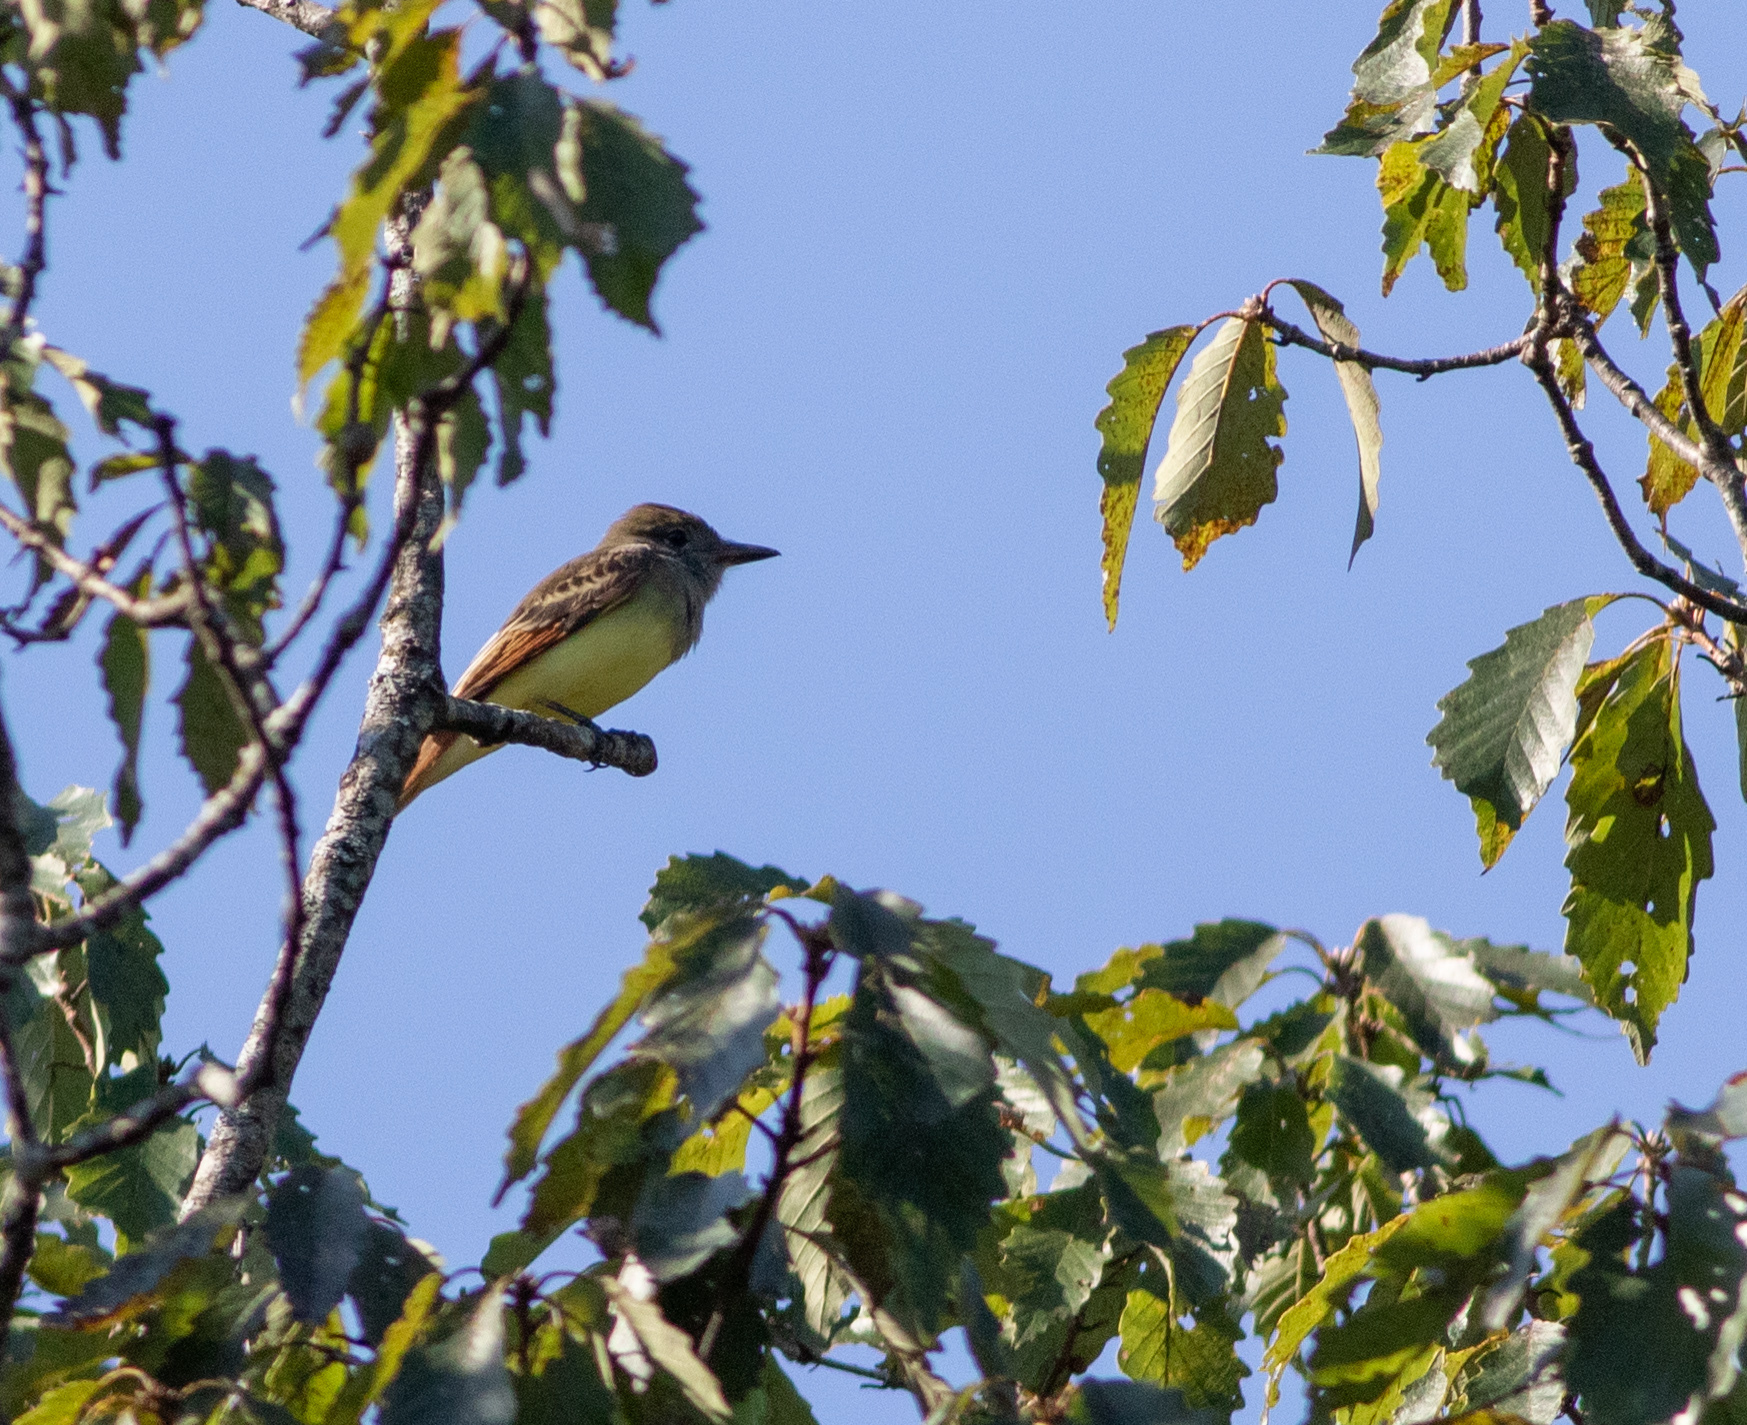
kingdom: Animalia
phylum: Chordata
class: Aves
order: Passeriformes
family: Tyrannidae
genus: Myiarchus
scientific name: Myiarchus crinitus
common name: Great crested flycatcher
